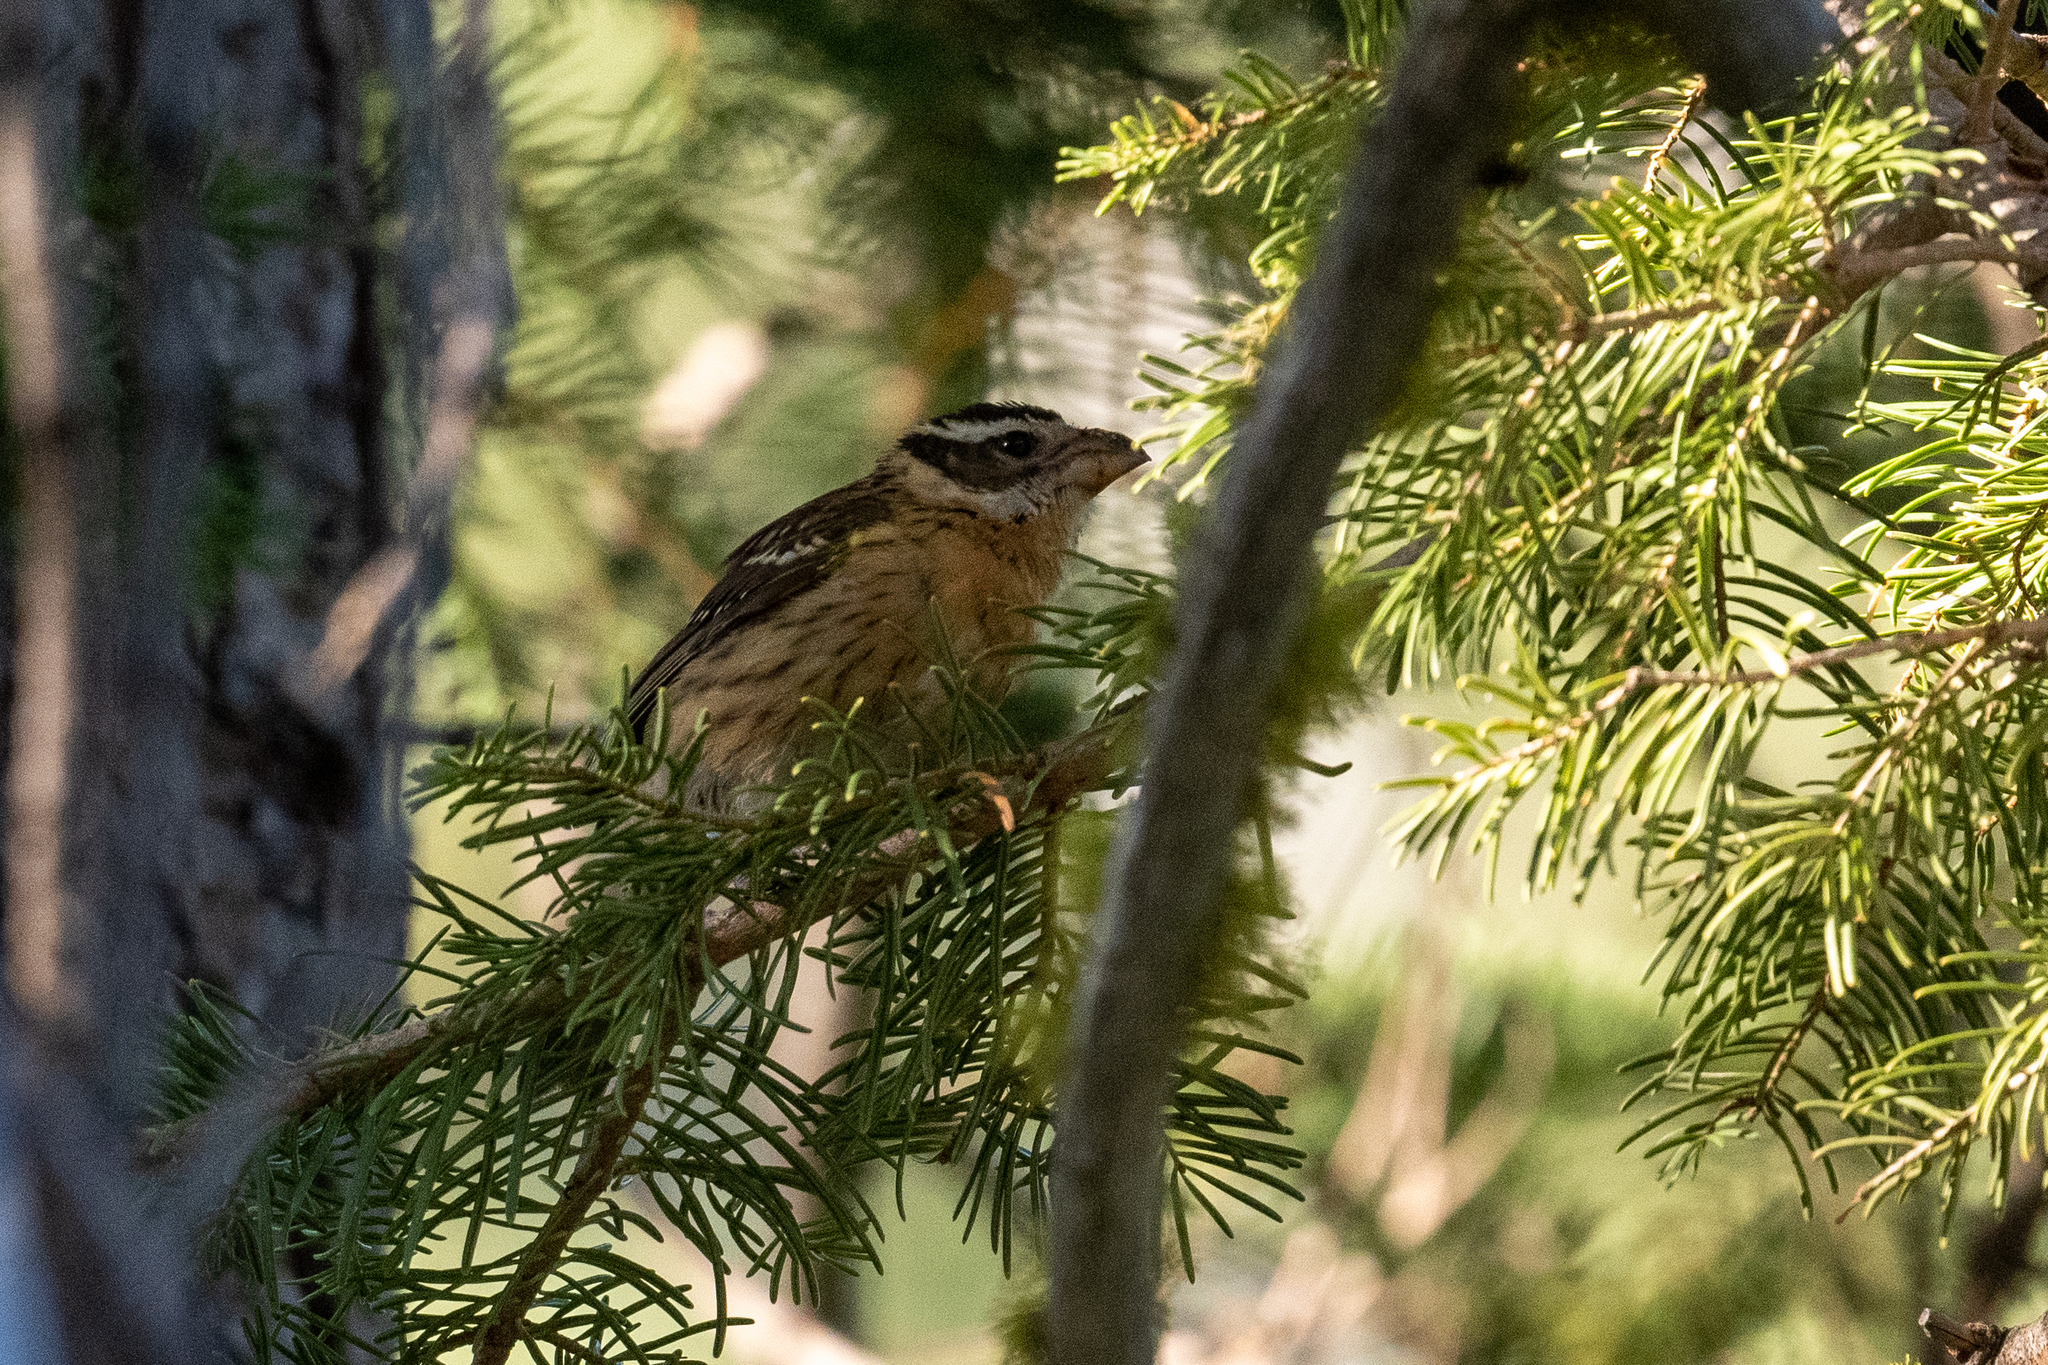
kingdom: Animalia
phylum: Chordata
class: Aves
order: Passeriformes
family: Cardinalidae
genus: Pheucticus
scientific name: Pheucticus melanocephalus
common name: Black-headed grosbeak
